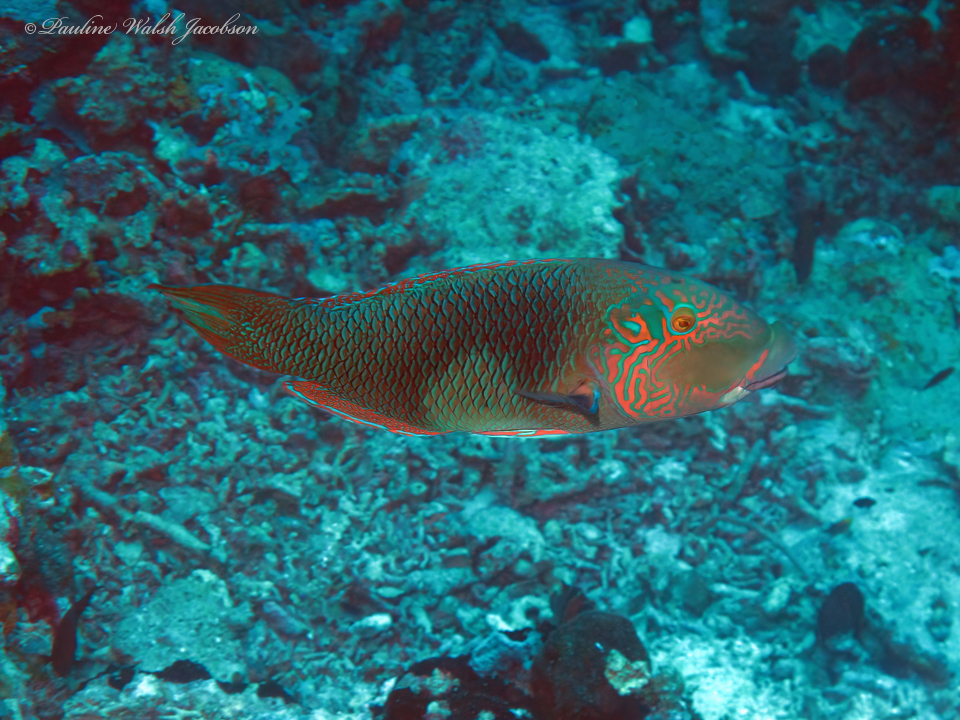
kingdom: Animalia
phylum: Chordata
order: Perciformes
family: Labridae
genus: Hemigymnus
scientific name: Hemigymnus melapterus
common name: Blackeye thicklip
